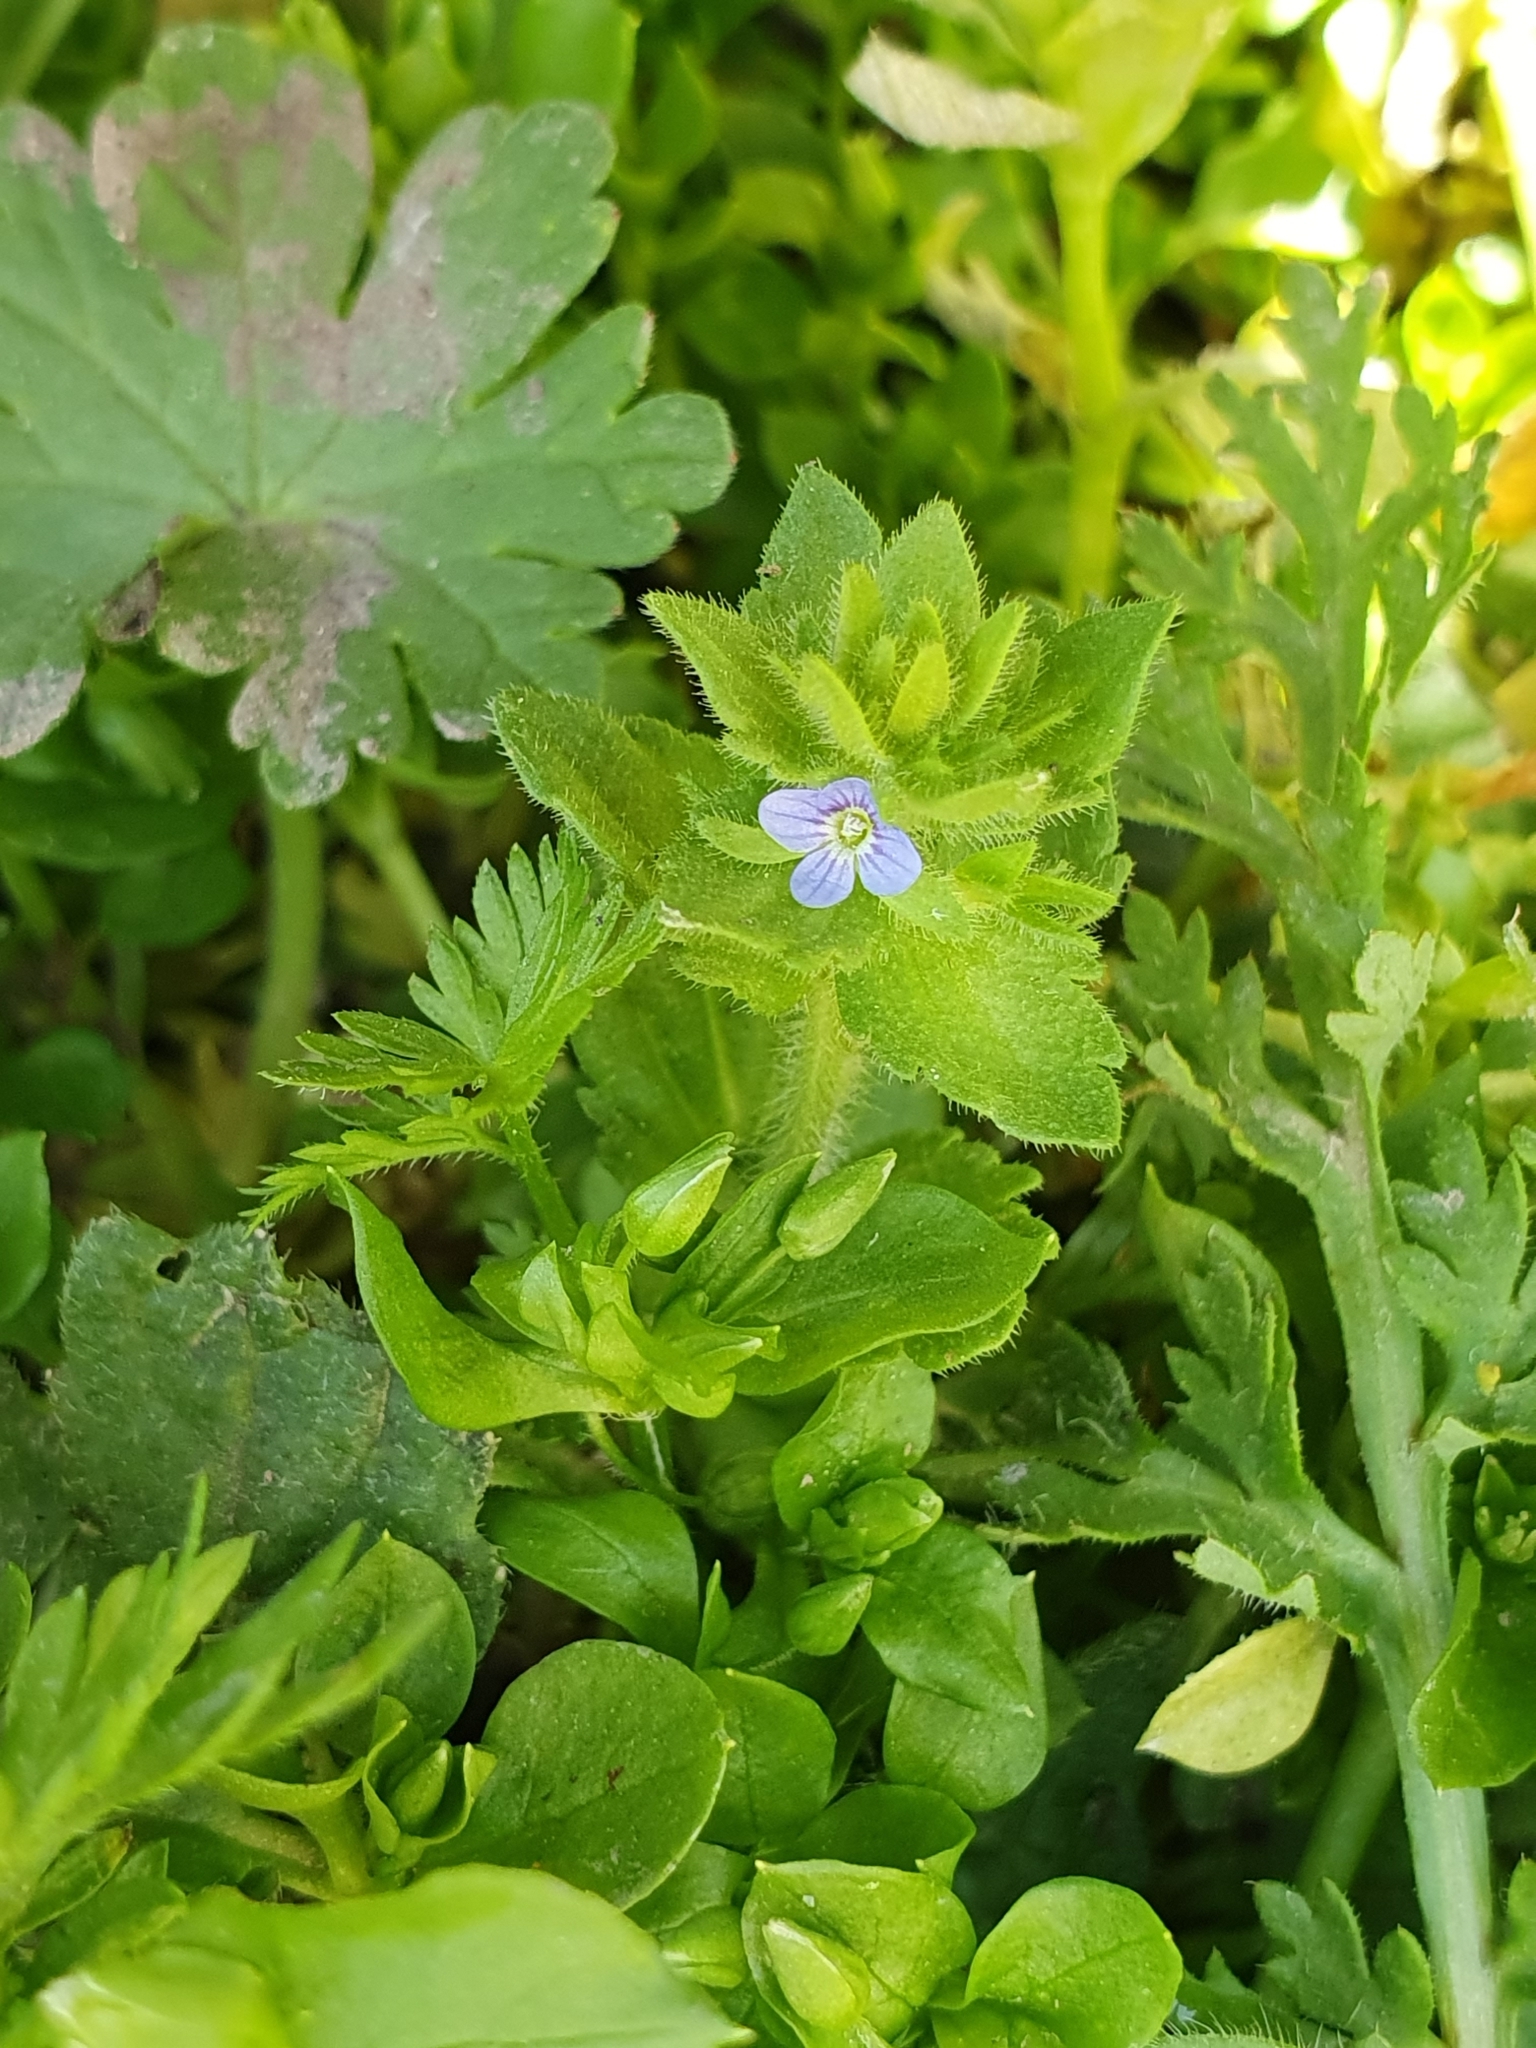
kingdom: Plantae
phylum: Tracheophyta
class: Magnoliopsida
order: Lamiales
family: Plantaginaceae
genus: Veronica
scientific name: Veronica arvensis
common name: Corn speedwell
